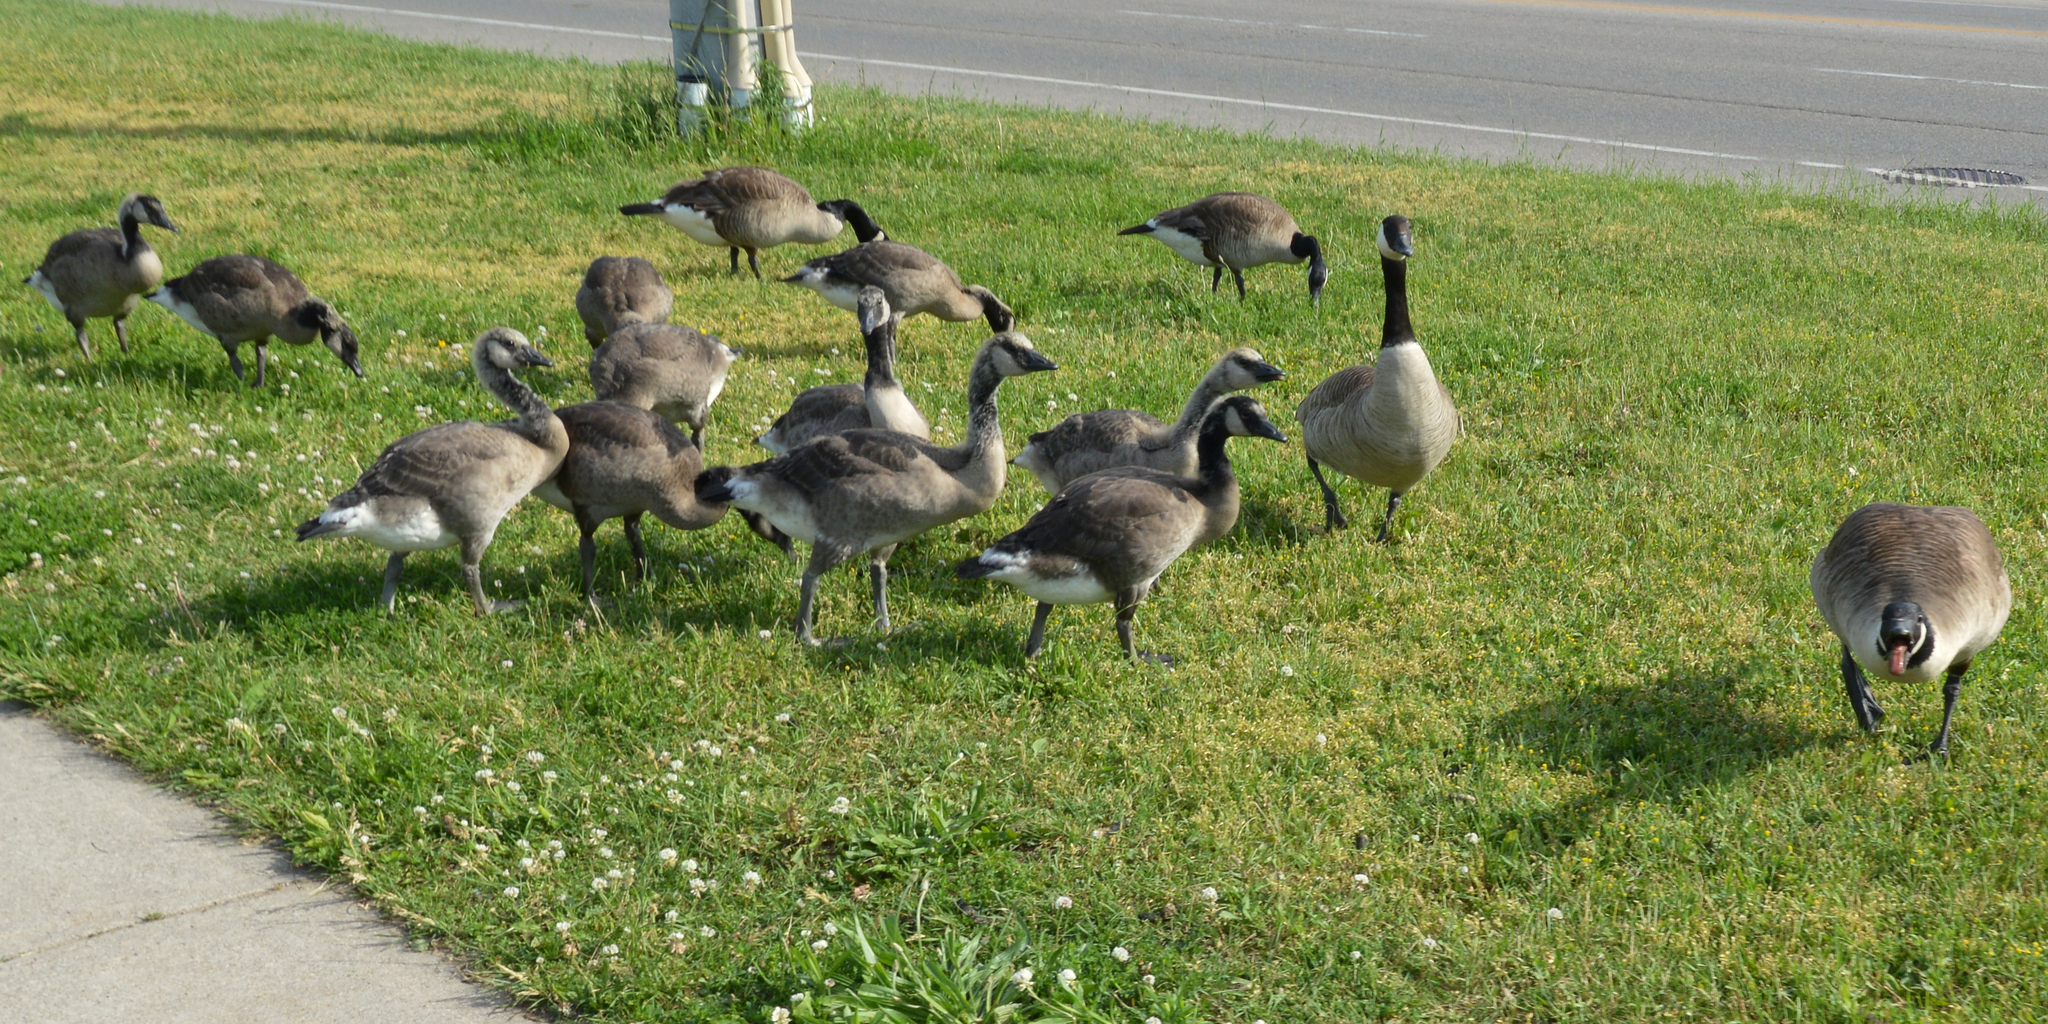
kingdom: Animalia
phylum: Chordata
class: Aves
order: Anseriformes
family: Anatidae
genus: Branta
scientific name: Branta canadensis
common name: Canada goose
